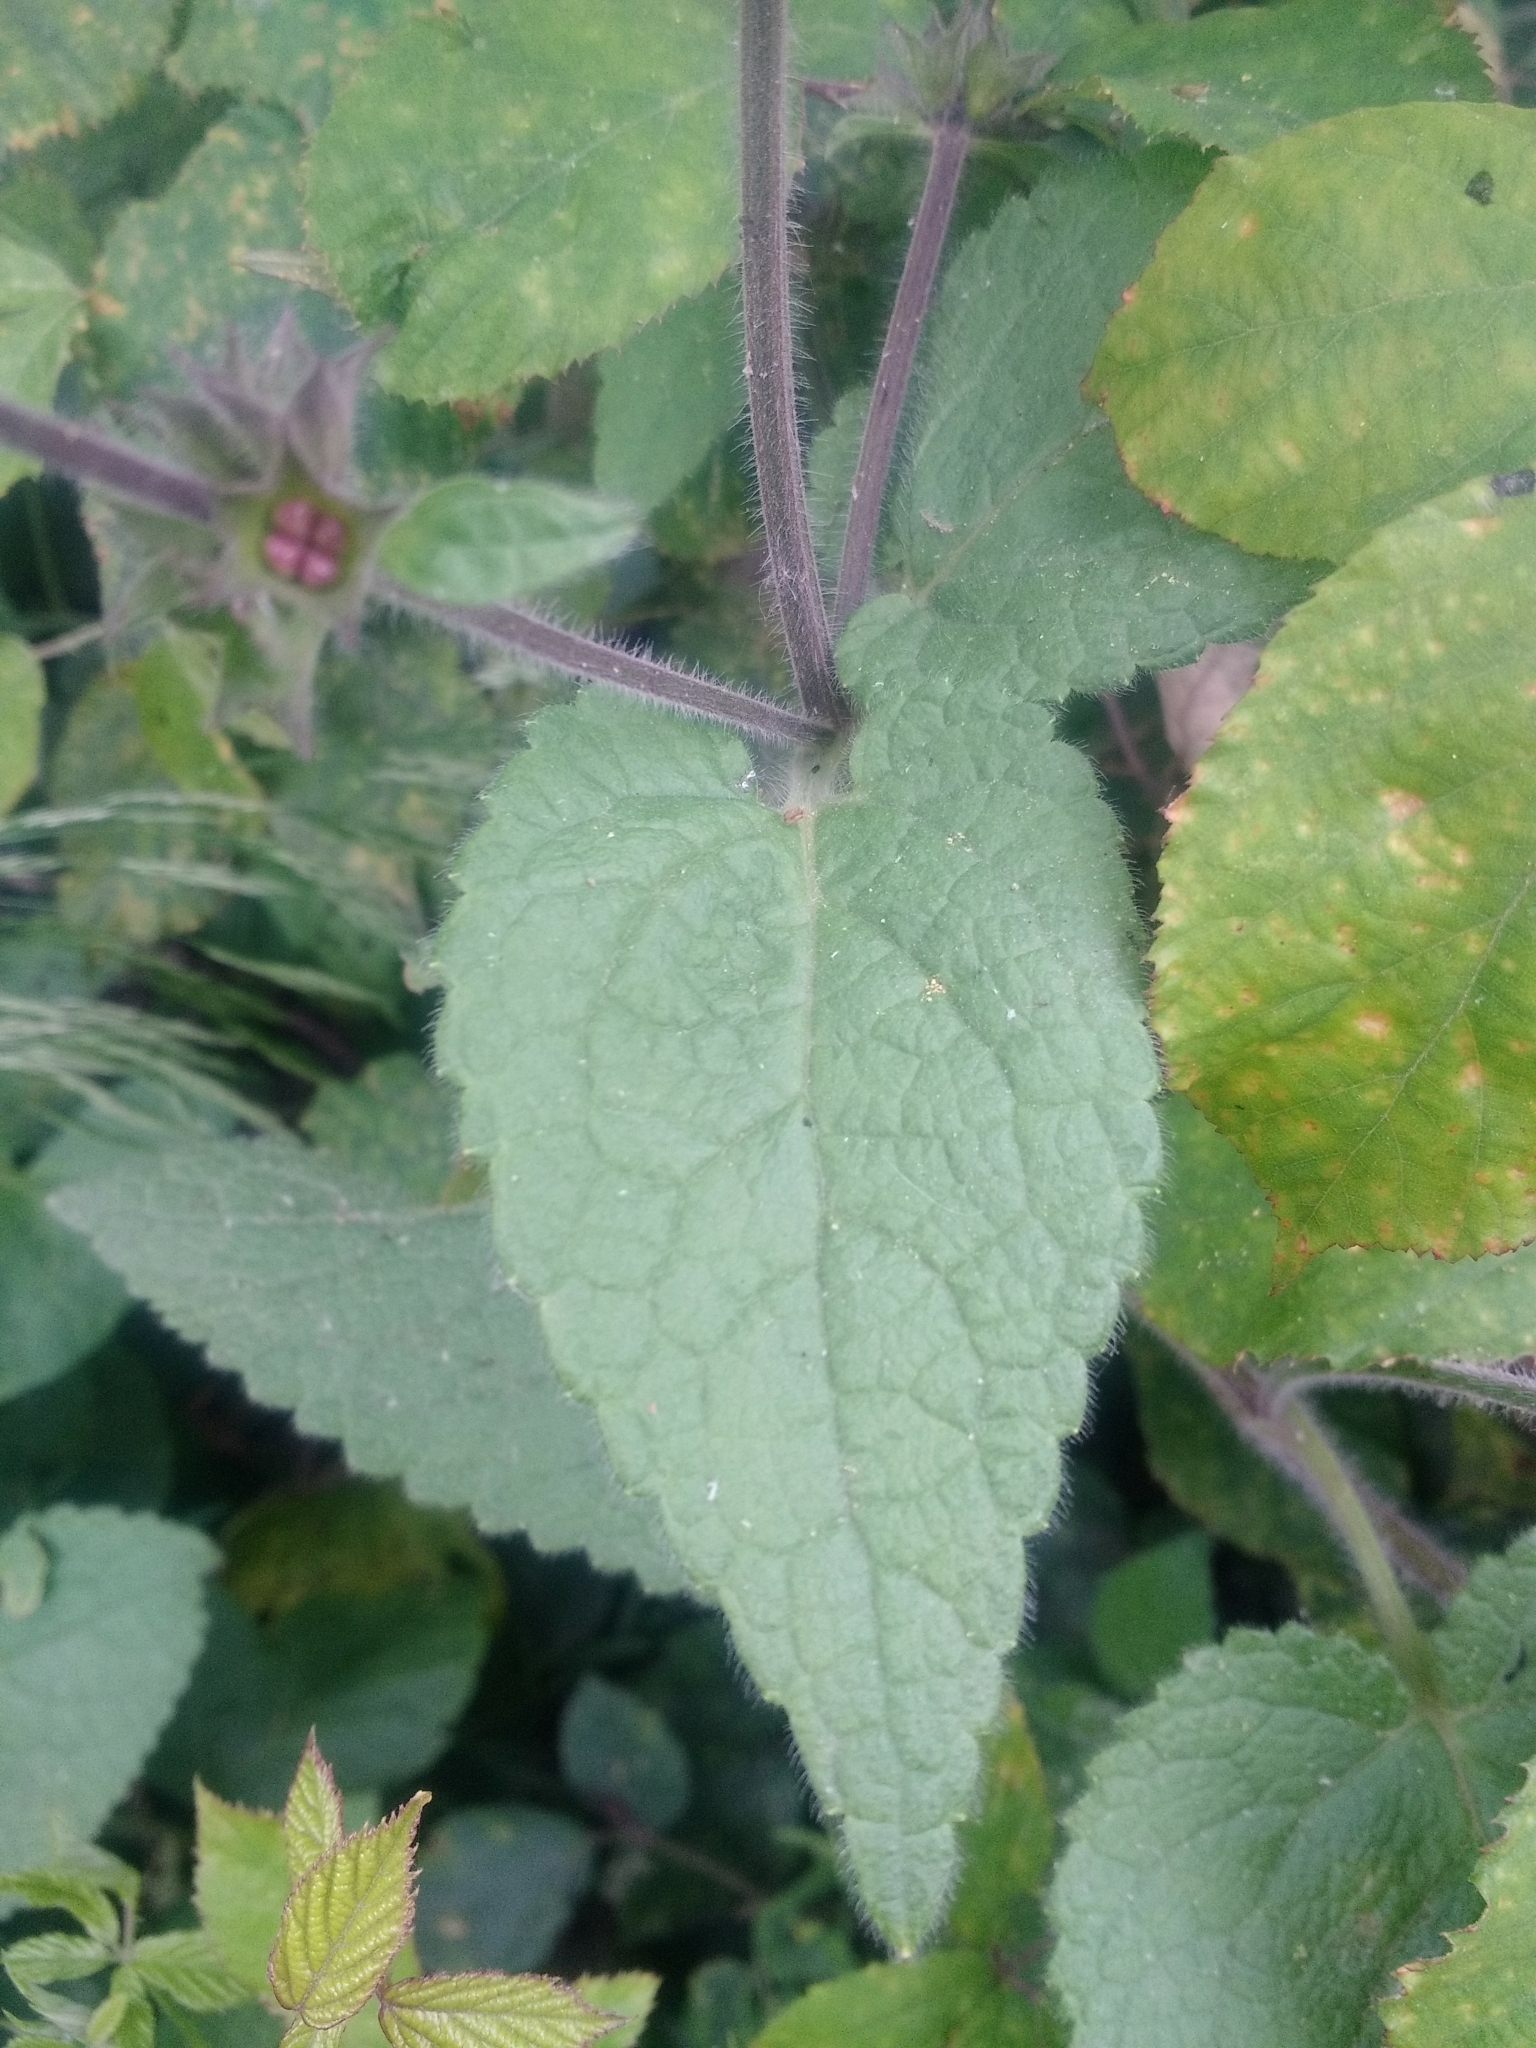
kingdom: Plantae
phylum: Tracheophyta
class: Magnoliopsida
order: Lamiales
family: Lamiaceae
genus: Stachys
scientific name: Stachys sylvatica
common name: Hedge woundwort
